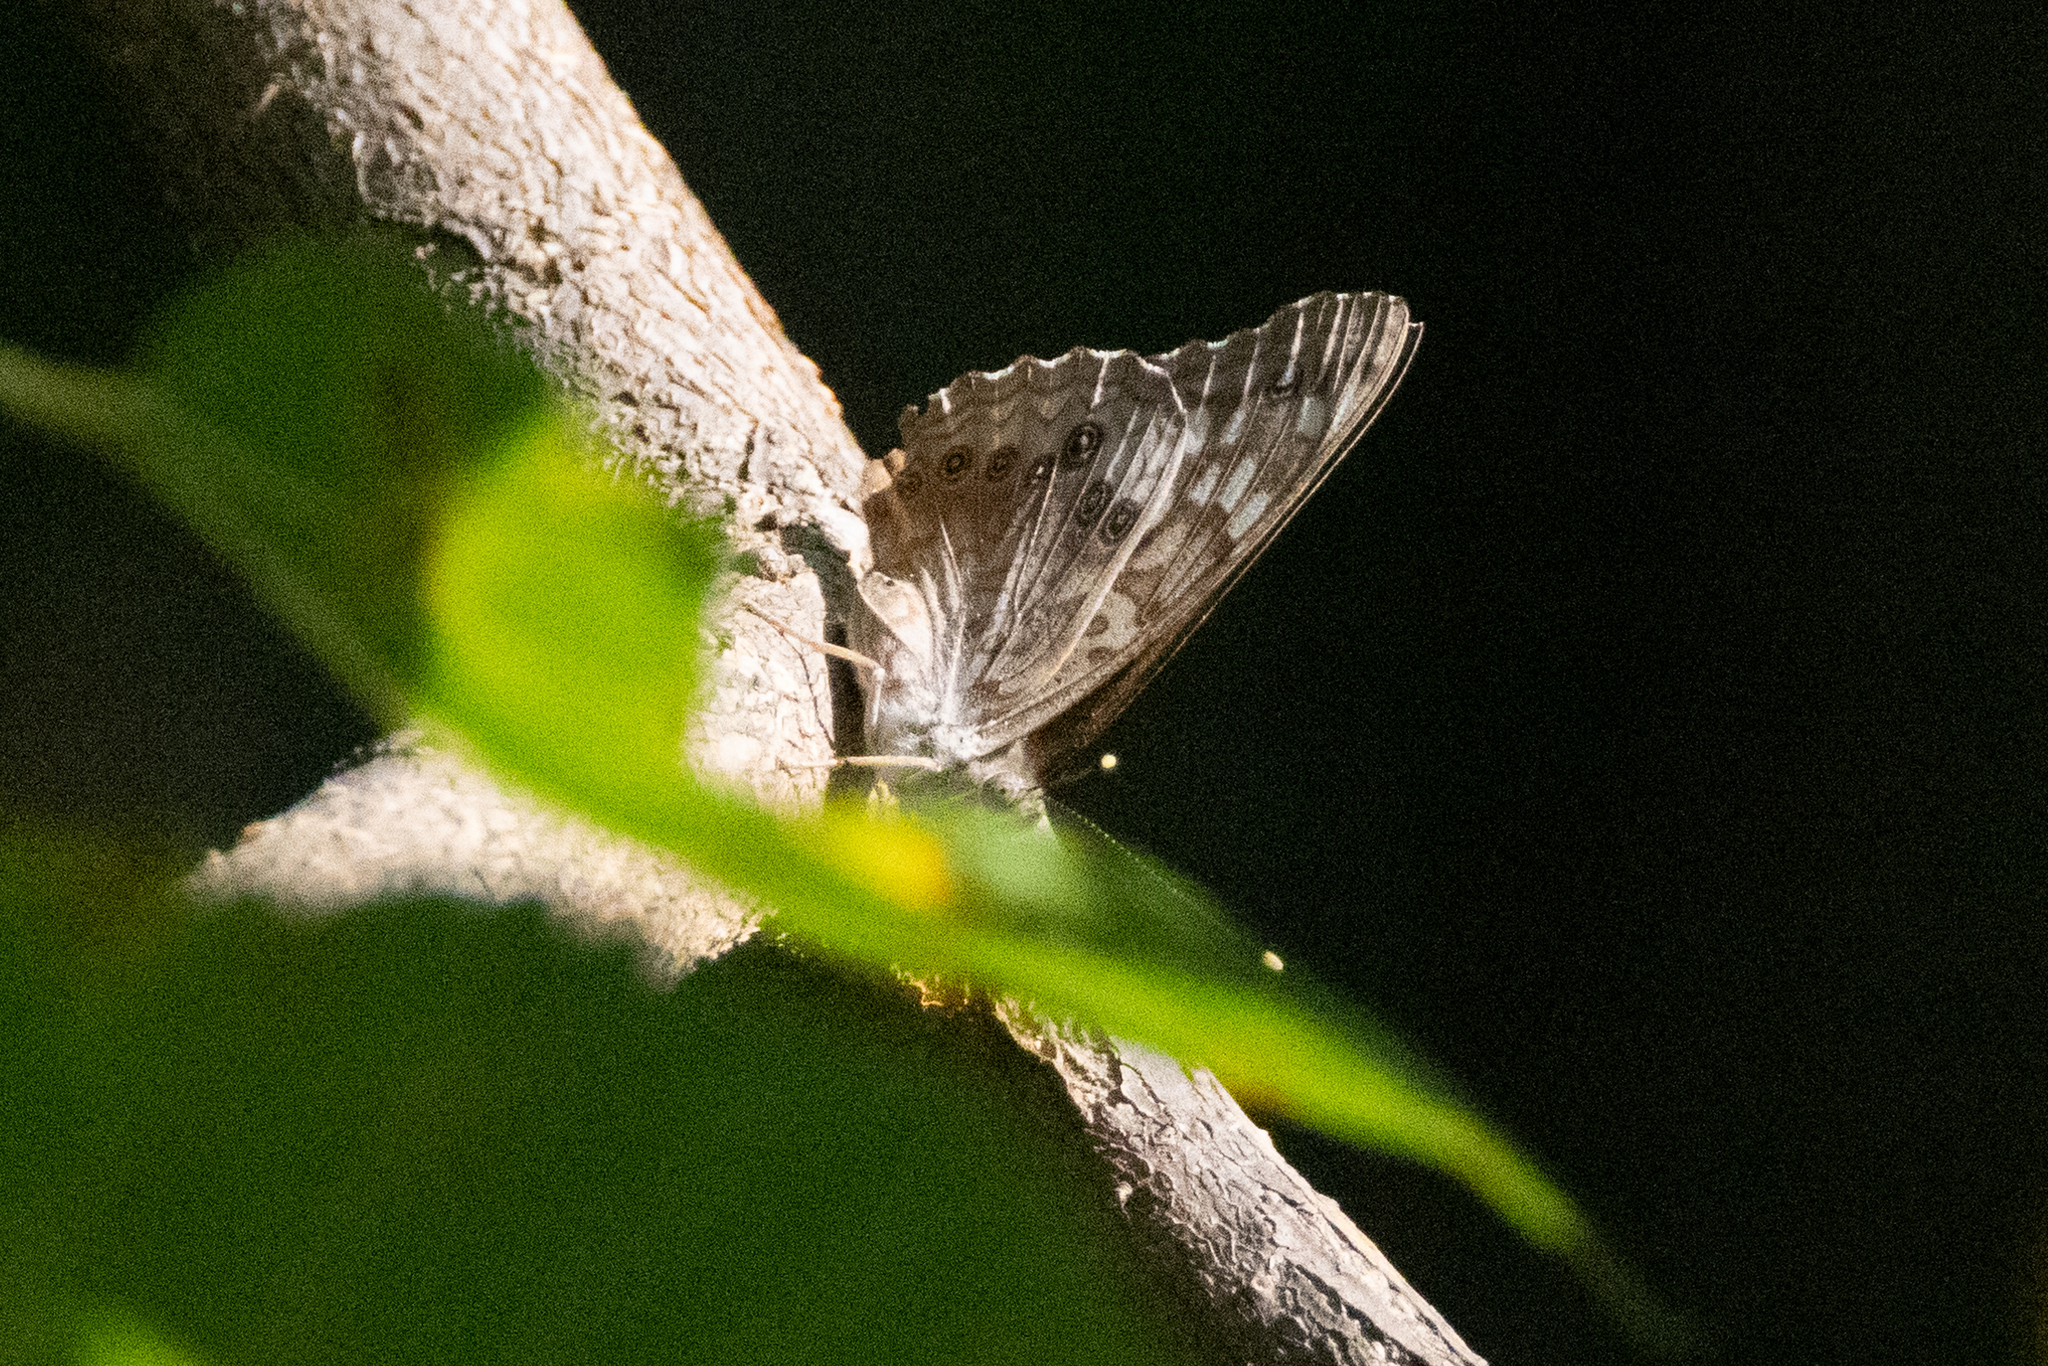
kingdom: Animalia
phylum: Arthropoda
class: Insecta
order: Lepidoptera
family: Nymphalidae
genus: Asterocampa
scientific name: Asterocampa celtis
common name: Hackberry emperor
